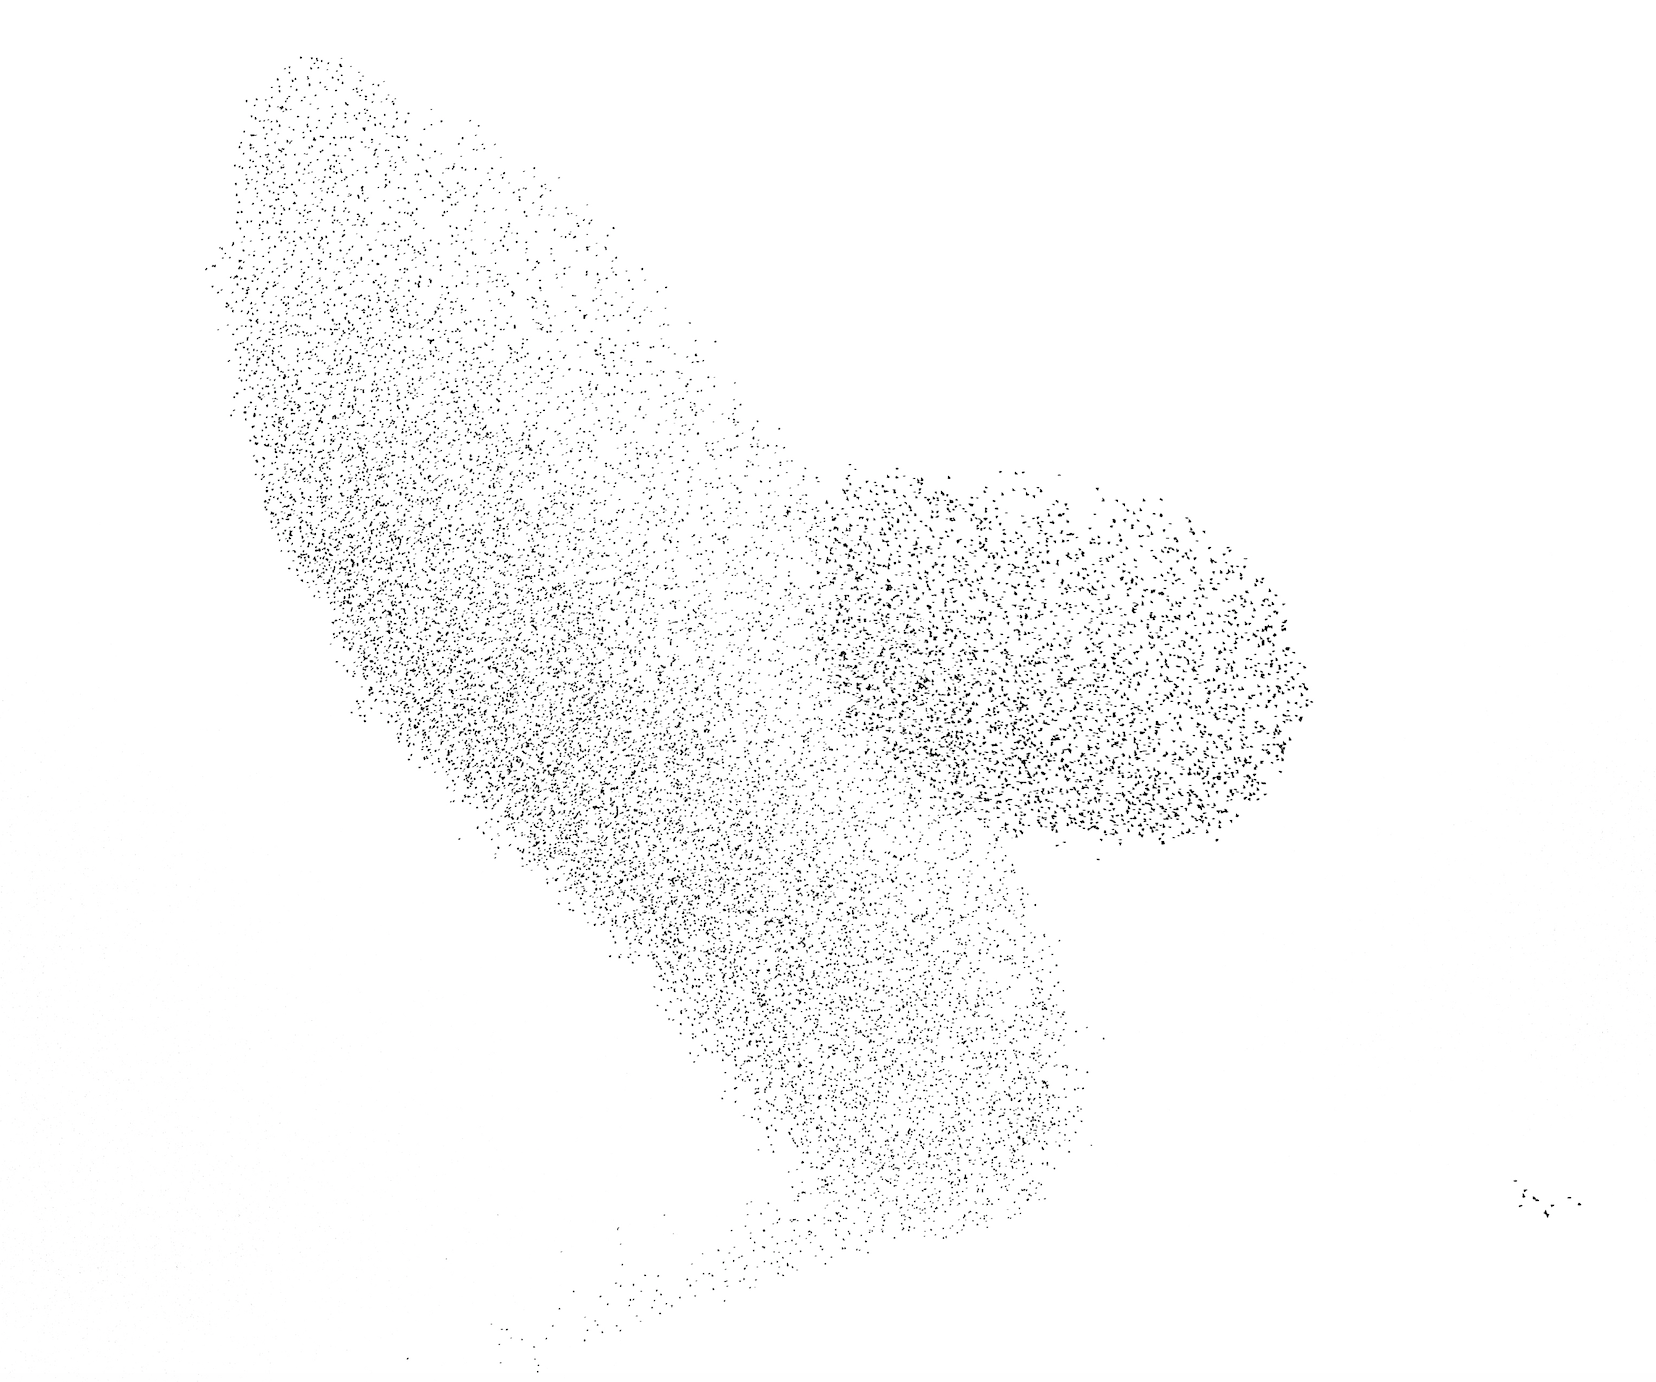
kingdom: Animalia
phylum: Chordata
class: Aves
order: Passeriformes
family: Sturnidae
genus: Sturnus
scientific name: Sturnus vulgaris
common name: Common starling
